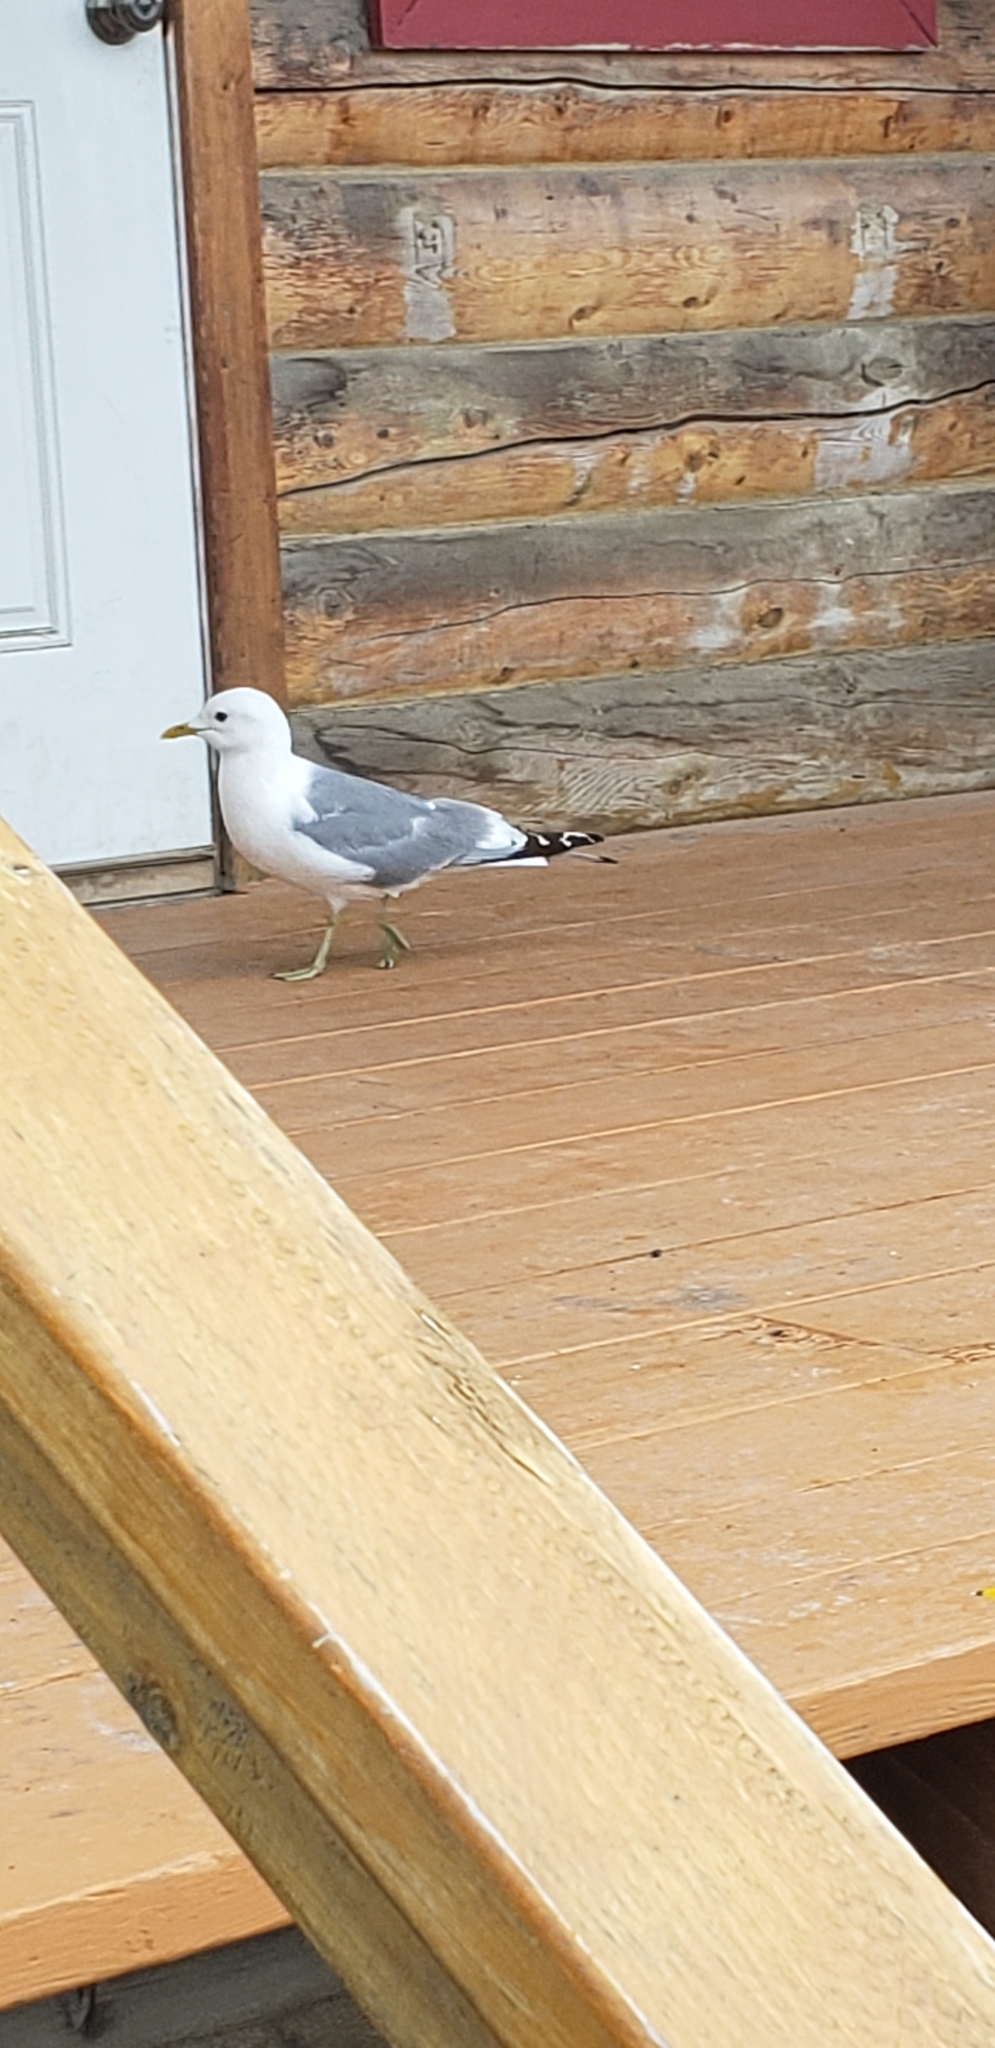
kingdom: Animalia
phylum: Chordata
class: Aves
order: Charadriiformes
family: Laridae
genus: Larus
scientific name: Larus brachyrhynchus
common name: Short-billed gull
